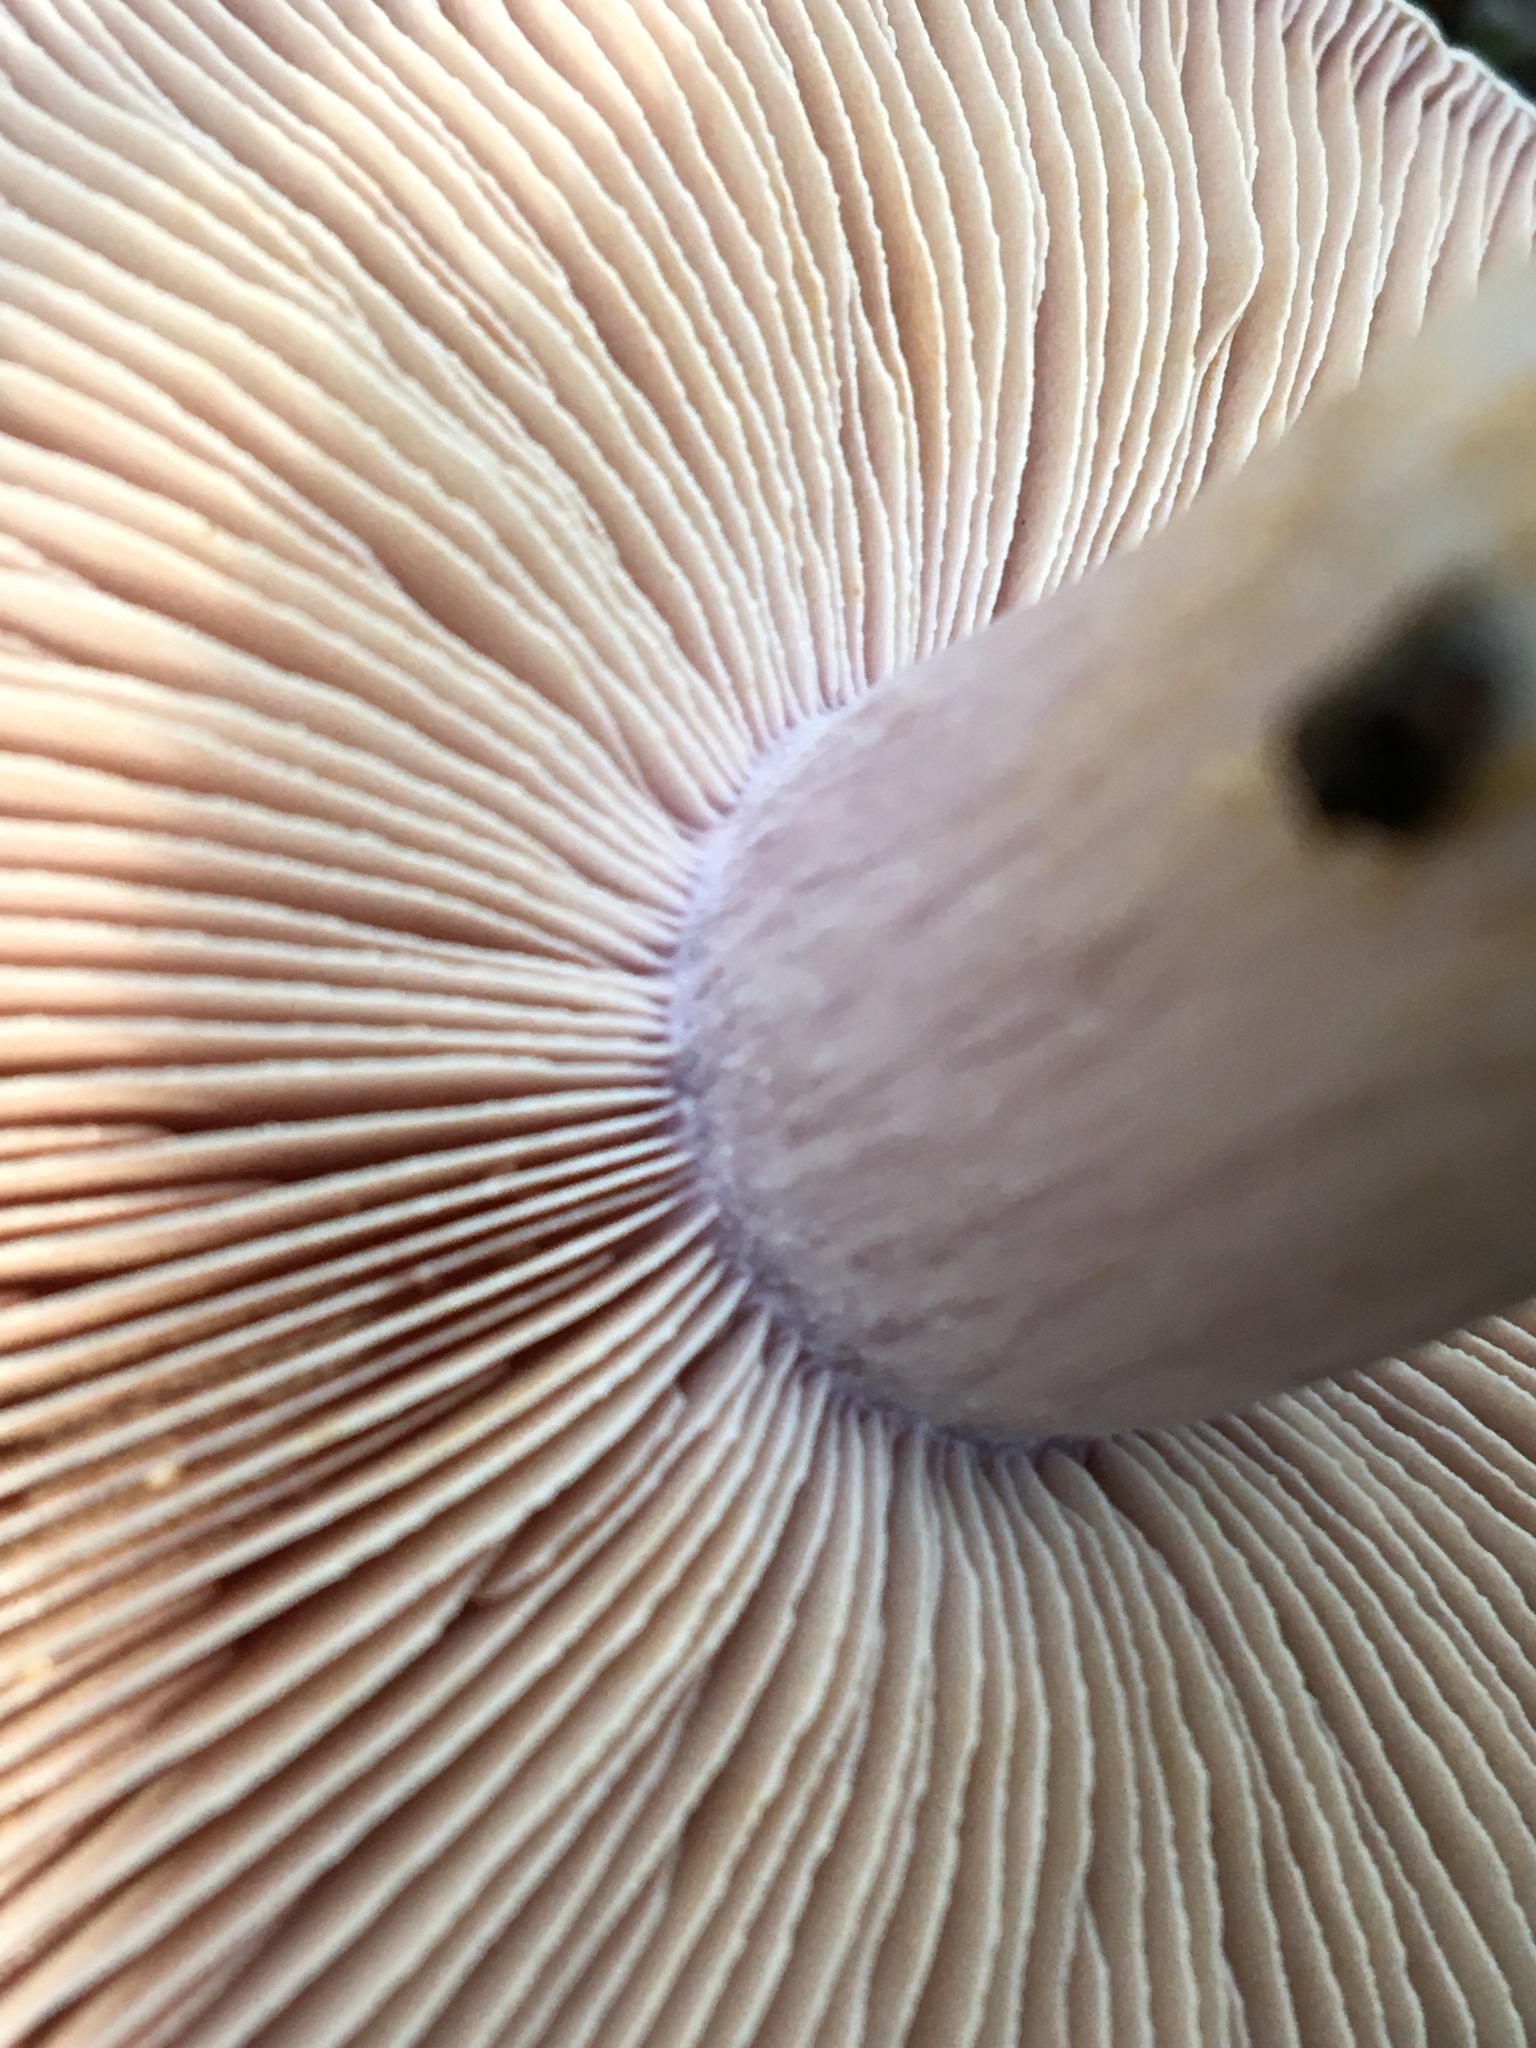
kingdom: Fungi
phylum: Basidiomycota
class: Agaricomycetes
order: Agaricales
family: Cortinariaceae
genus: Phlegmacium
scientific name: Phlegmacium coelopus
